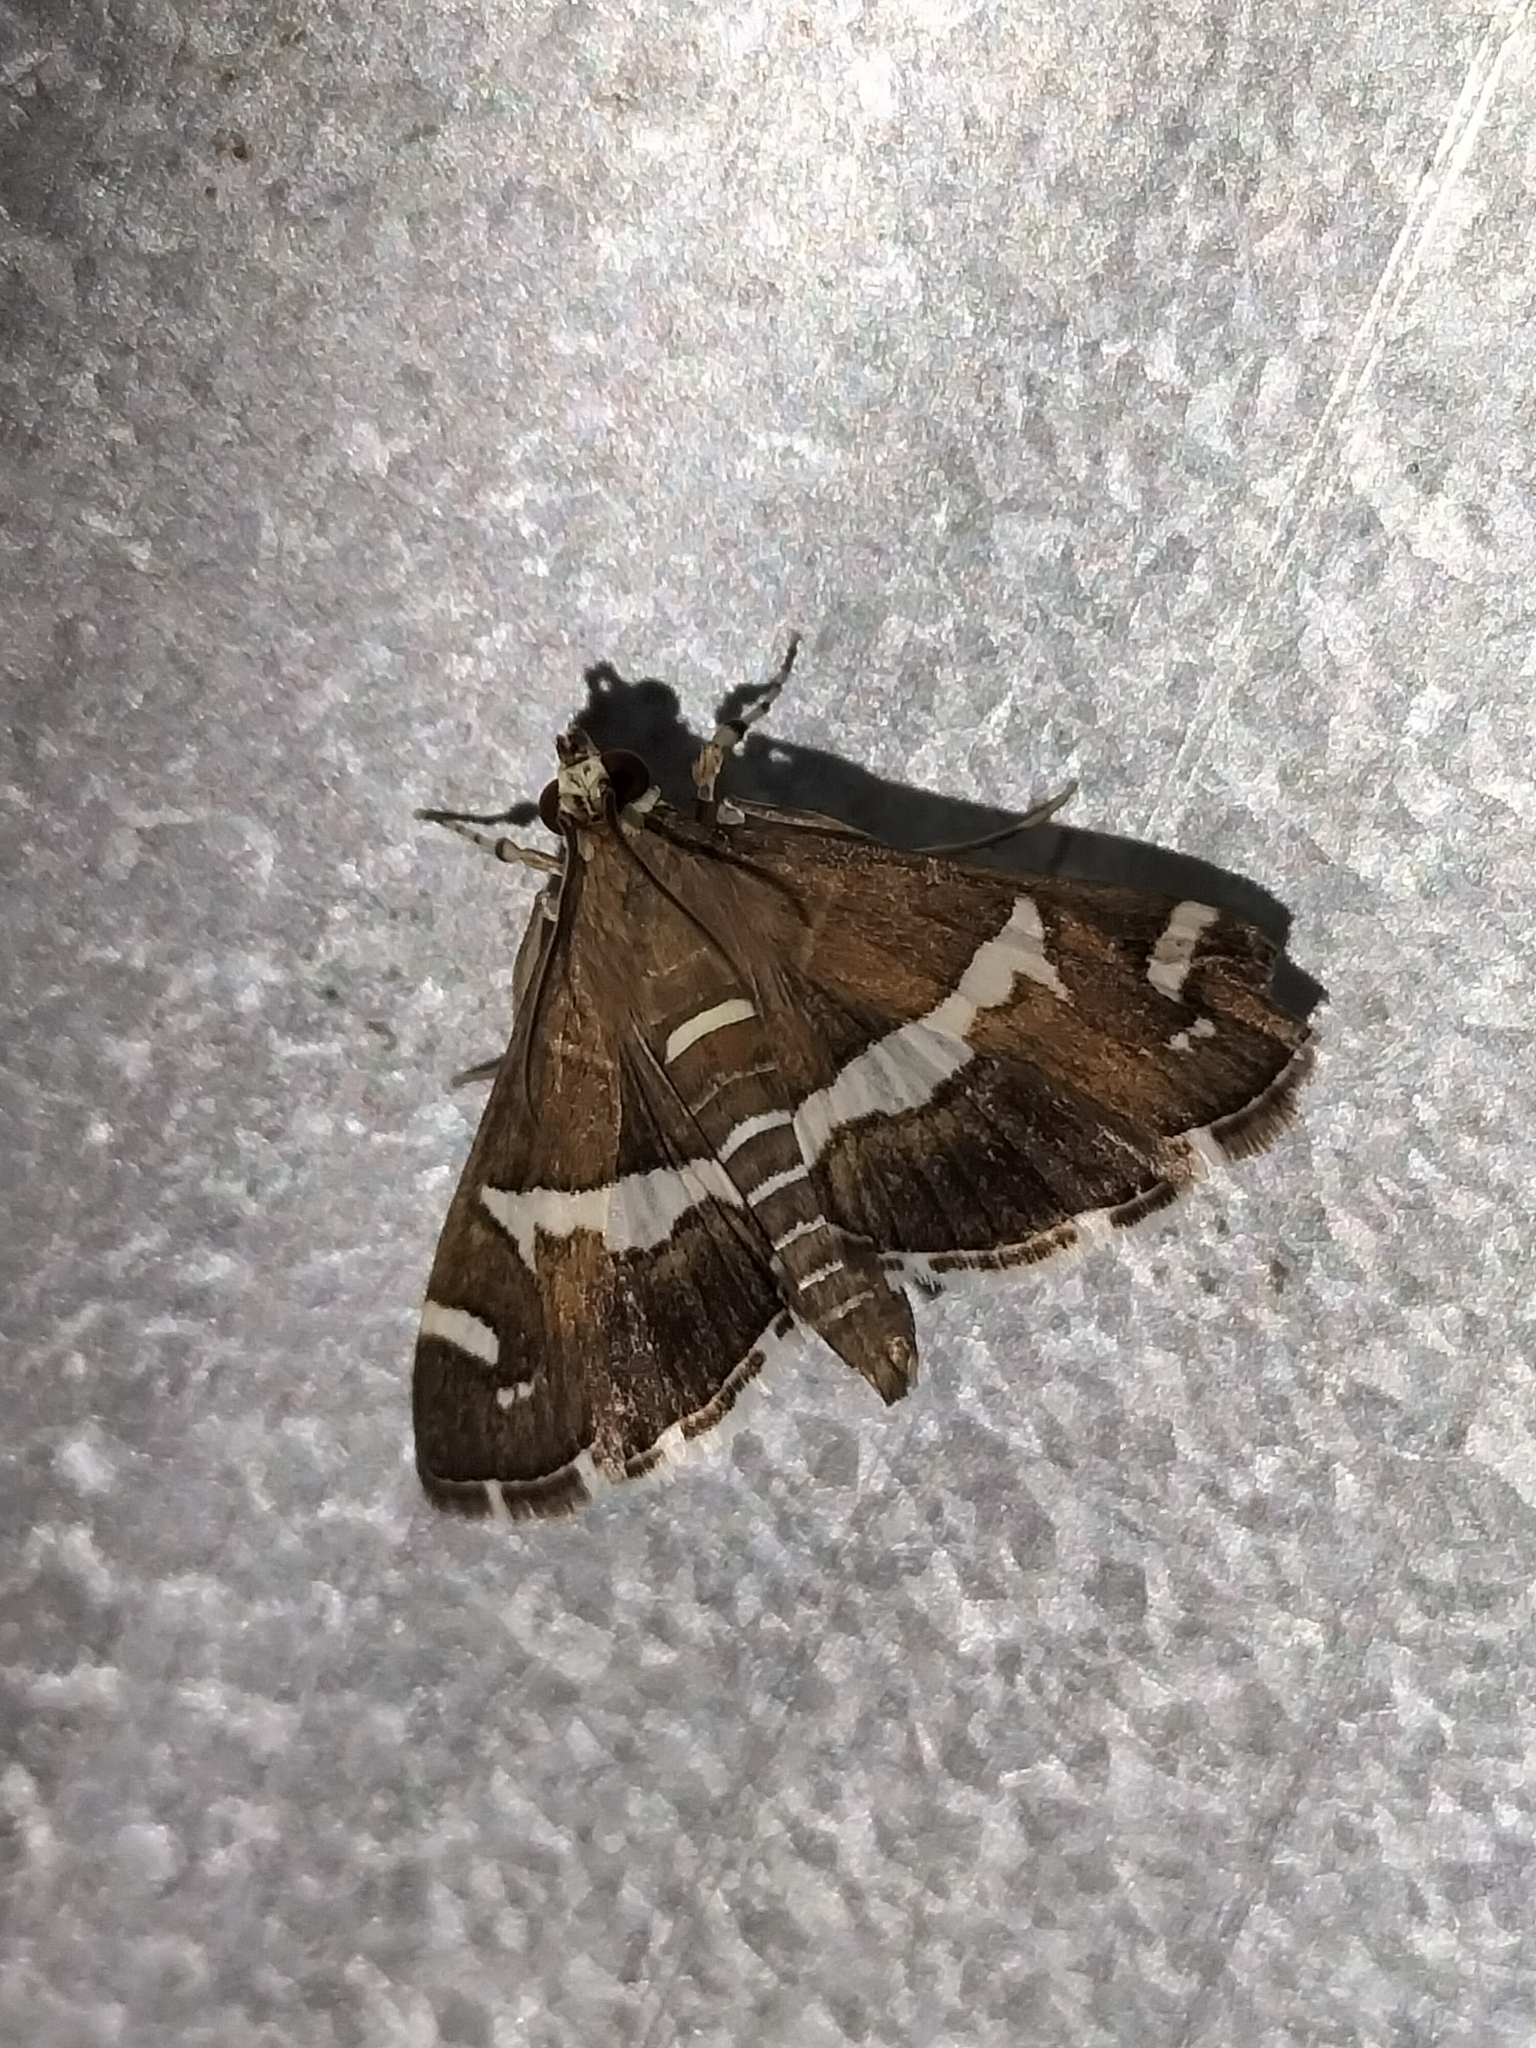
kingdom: Animalia
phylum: Arthropoda
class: Insecta
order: Lepidoptera
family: Crambidae
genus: Spoladea
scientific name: Spoladea recurvalis
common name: Beet webworm moth
